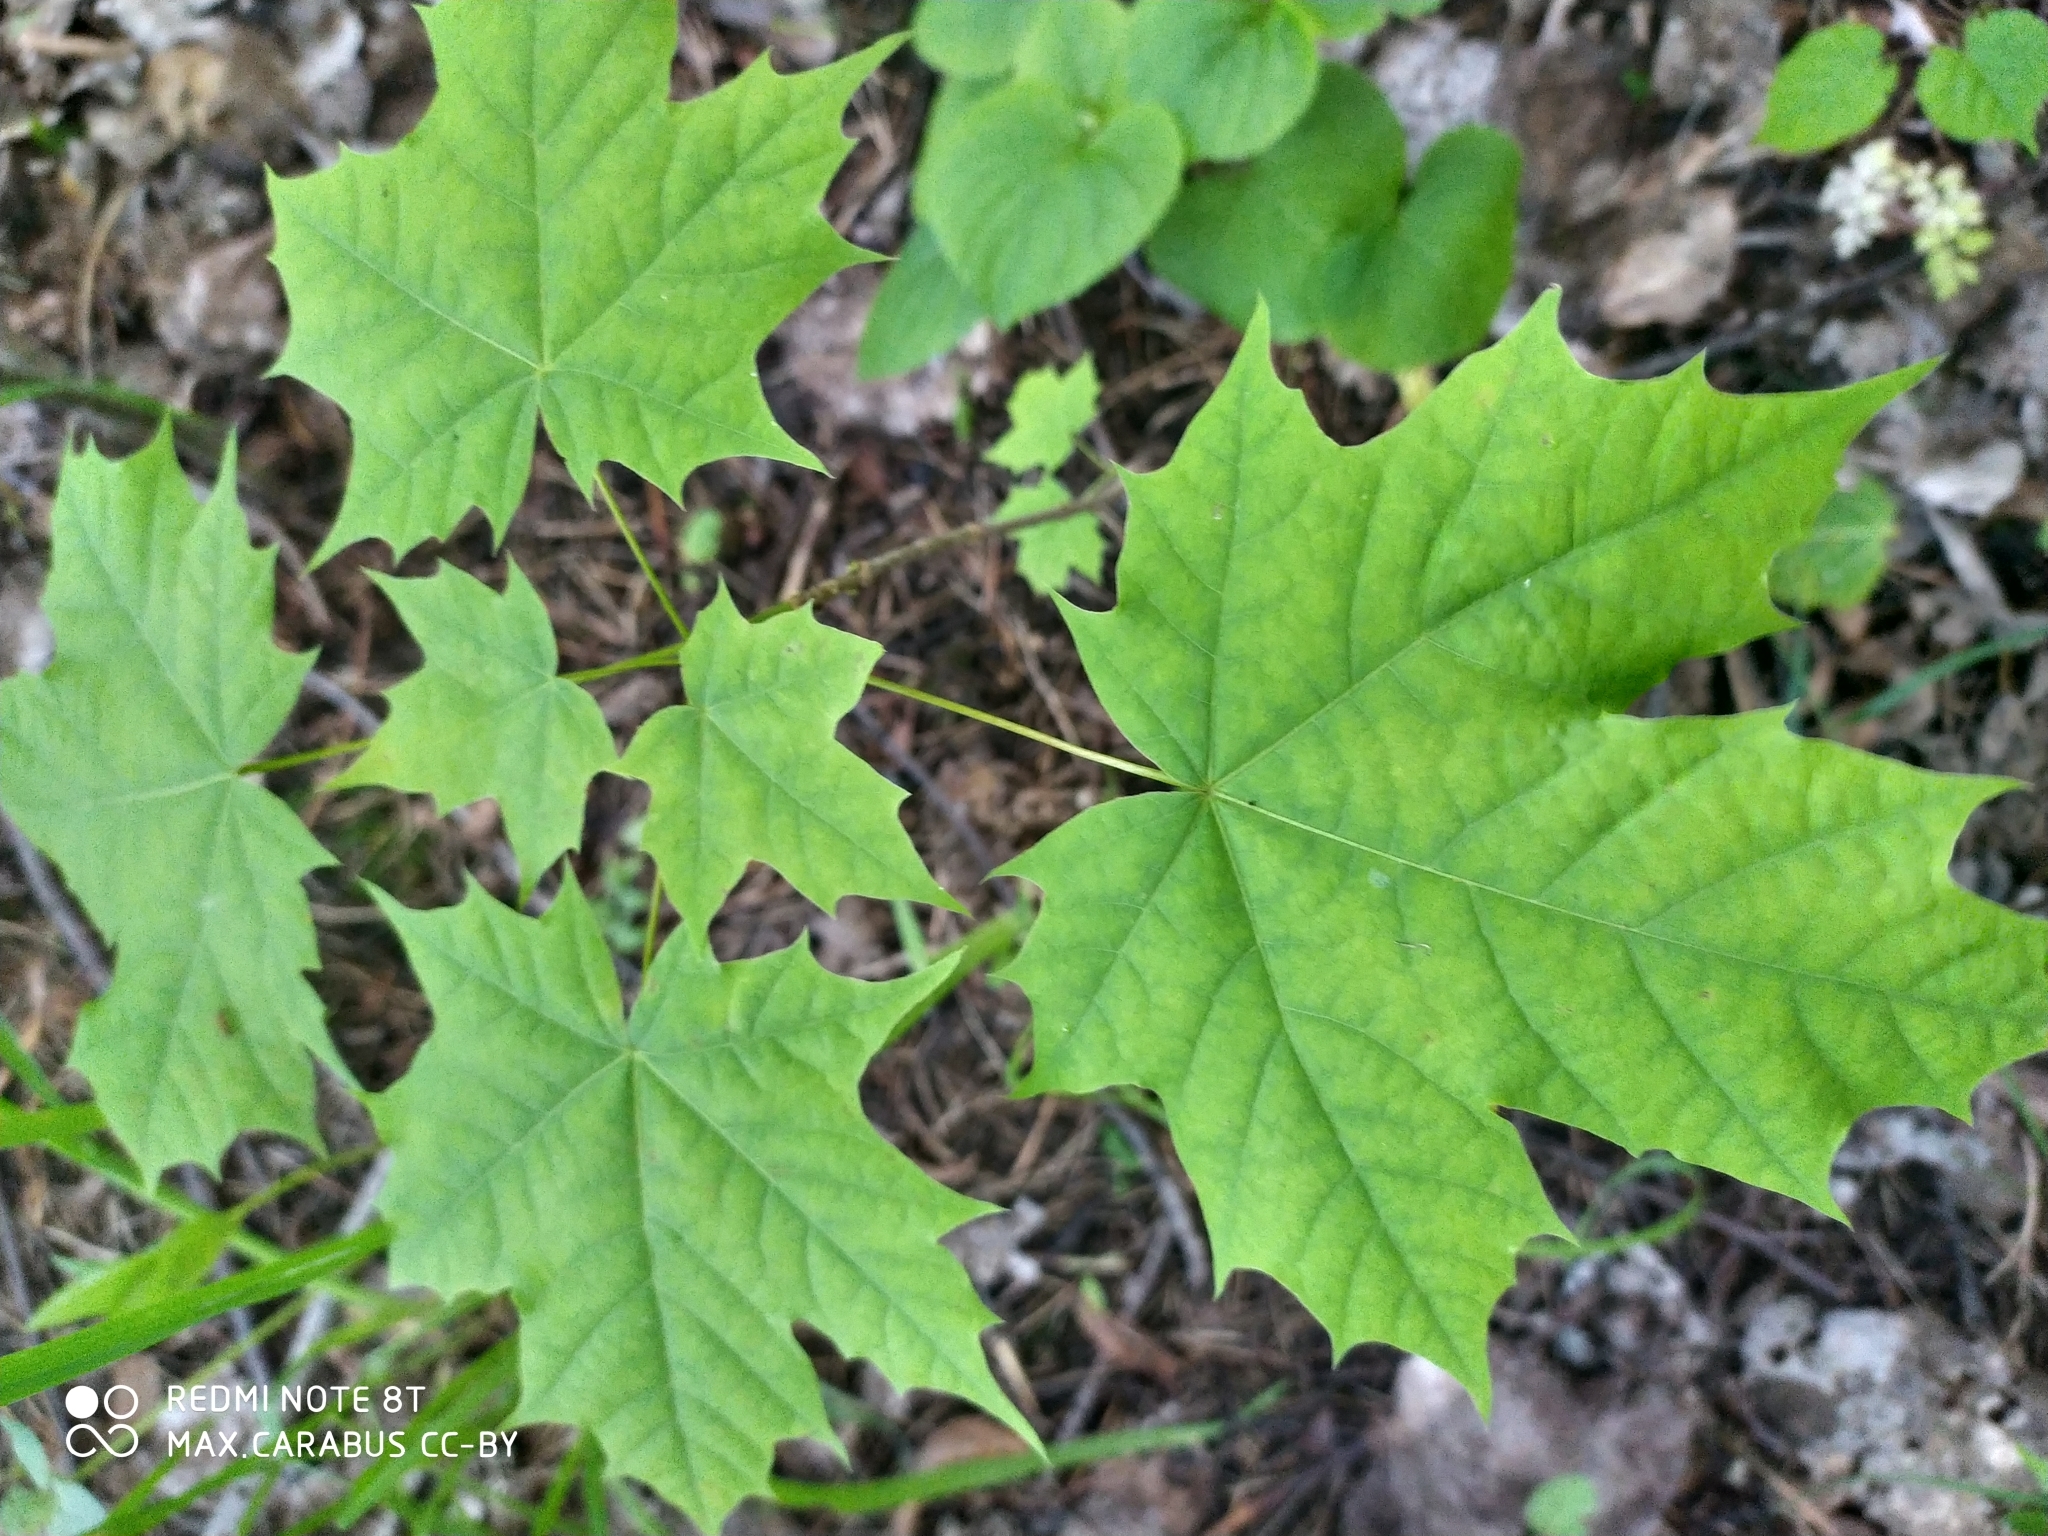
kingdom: Plantae
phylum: Tracheophyta
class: Magnoliopsida
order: Sapindales
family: Sapindaceae
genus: Acer
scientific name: Acer platanoides
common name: Norway maple
